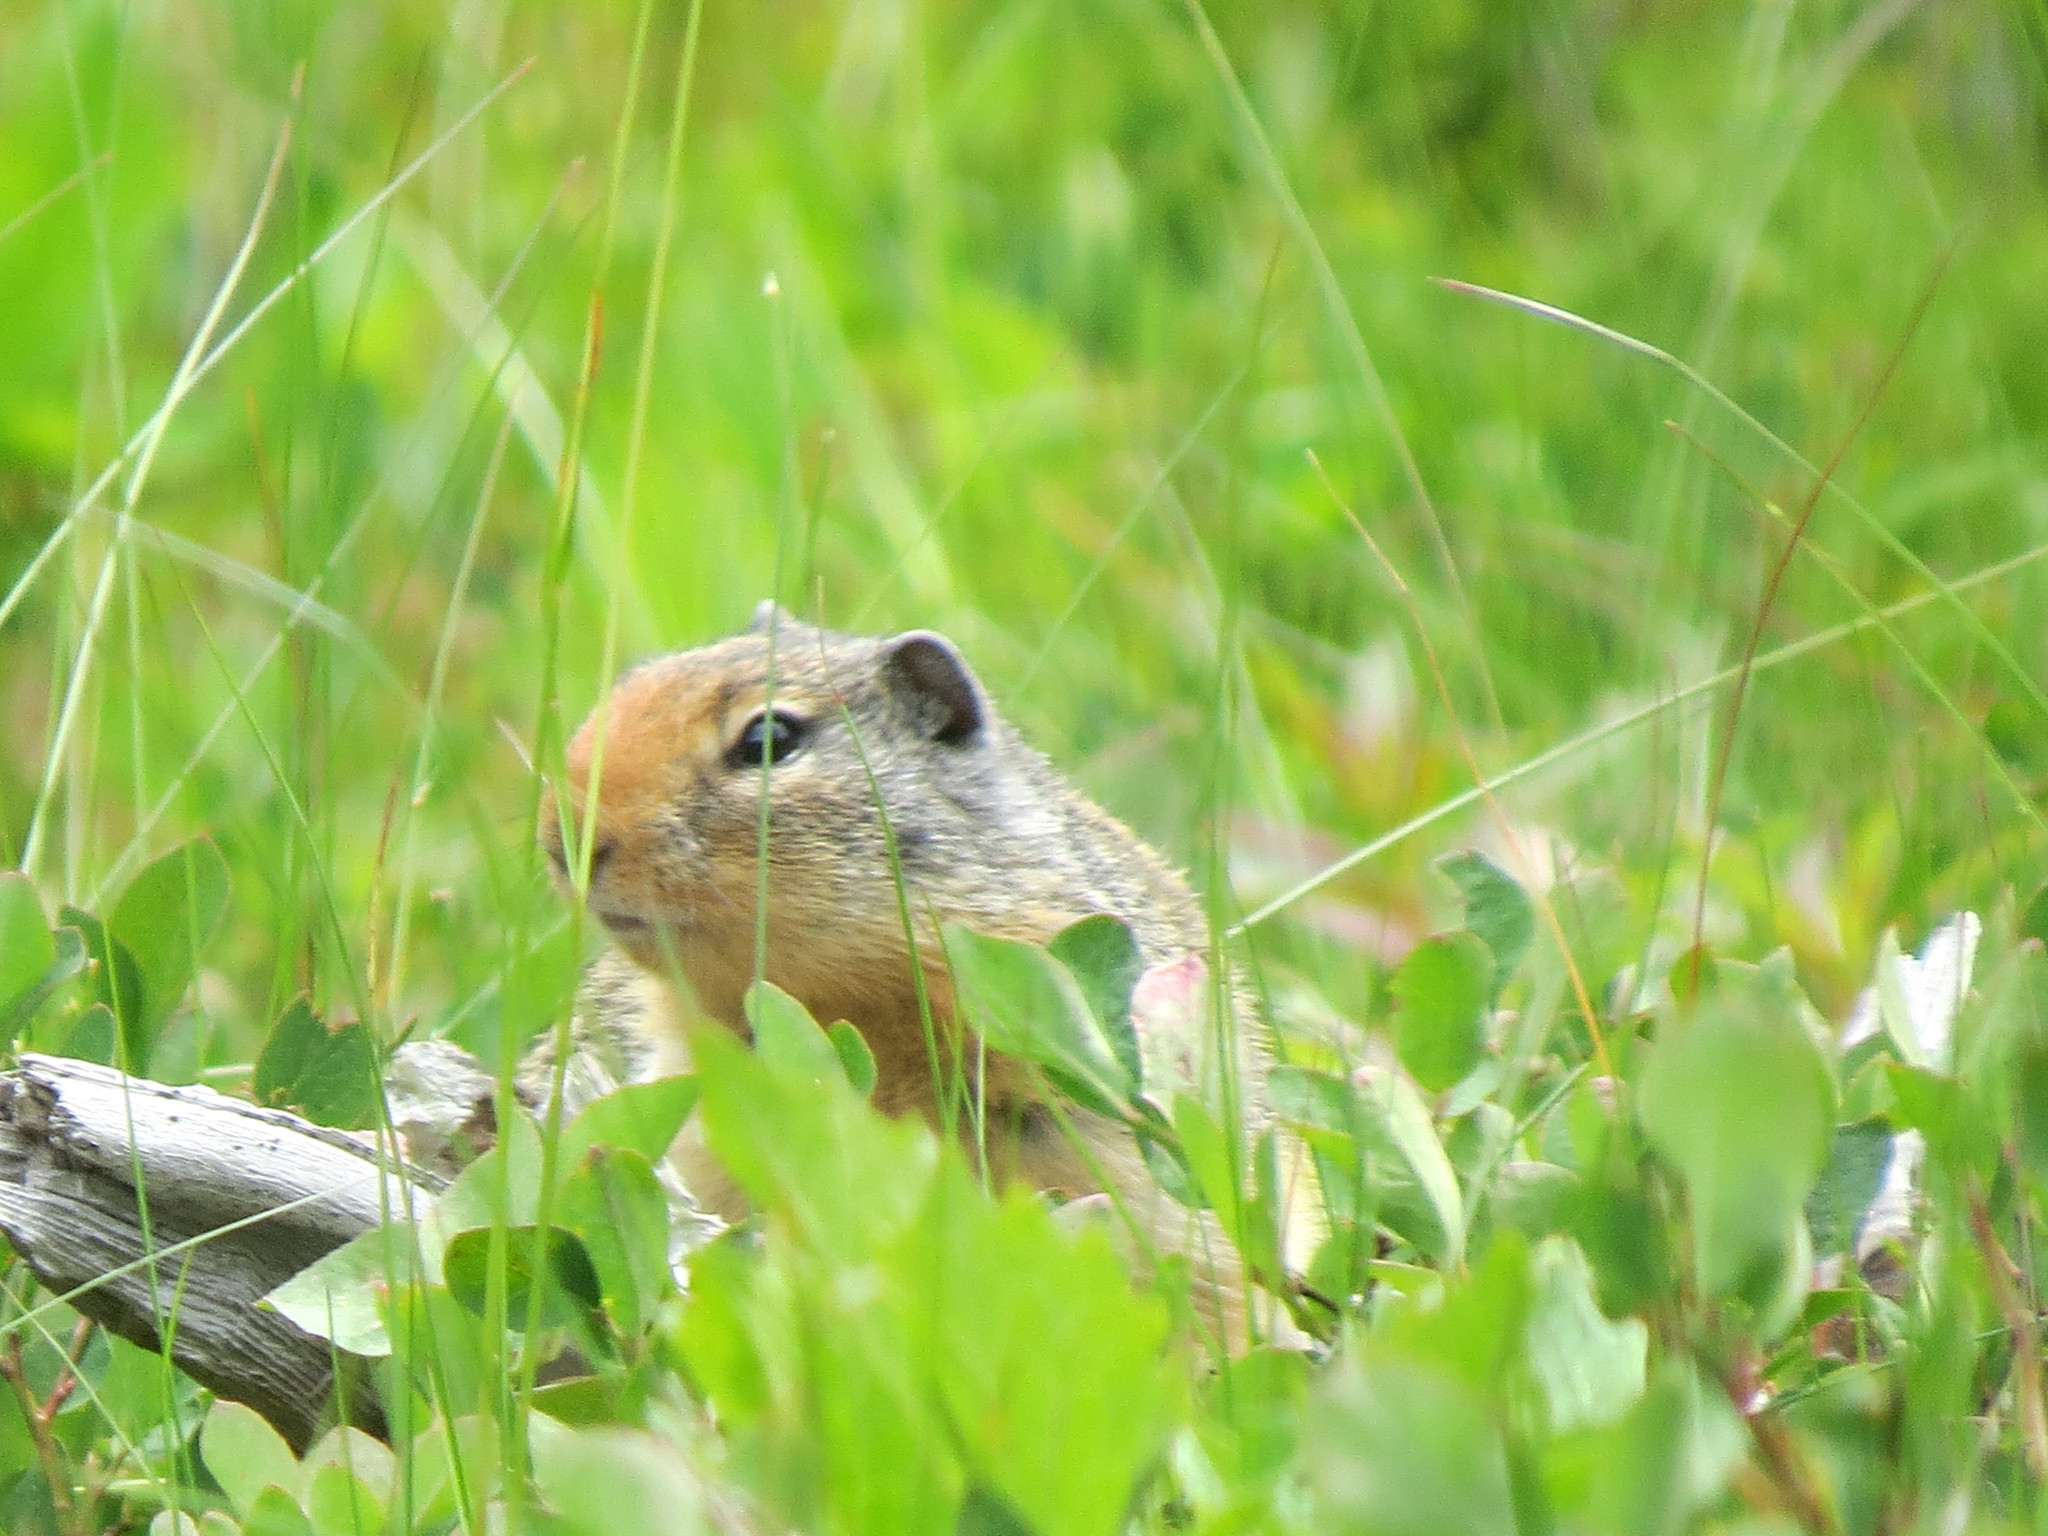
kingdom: Animalia
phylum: Chordata
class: Mammalia
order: Rodentia
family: Sciuridae
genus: Urocitellus
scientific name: Urocitellus columbianus
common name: Columbian ground squirrel
